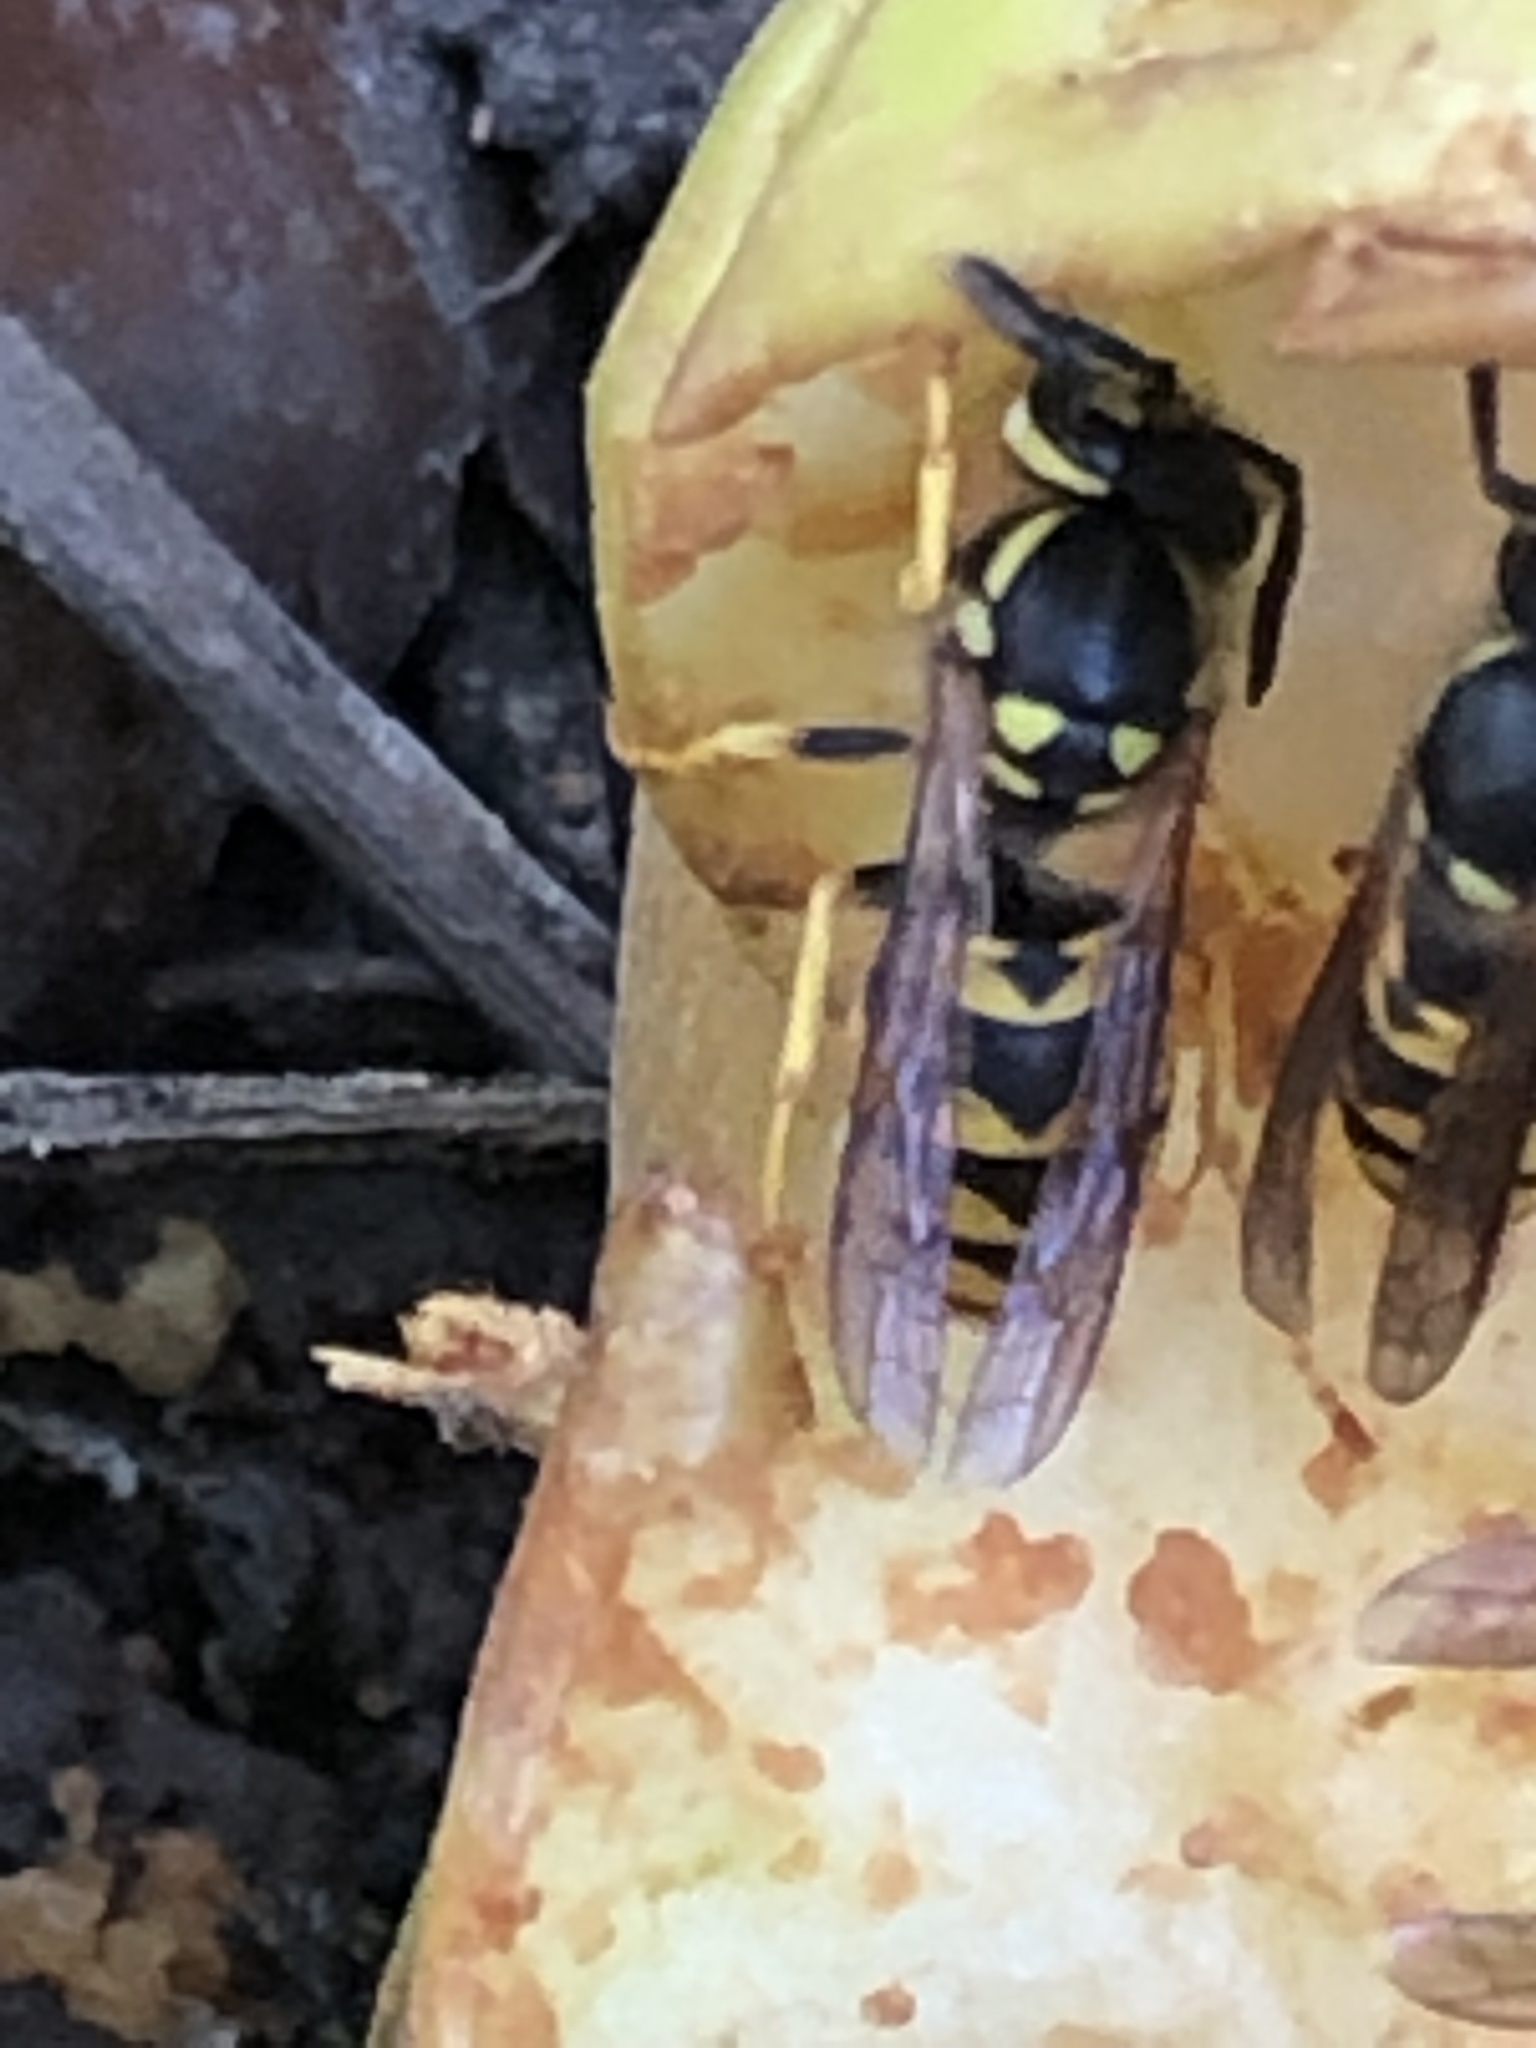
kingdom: Animalia
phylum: Arthropoda
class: Insecta
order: Hymenoptera
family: Vespidae
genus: Vespula
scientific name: Vespula germanica
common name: German wasp
